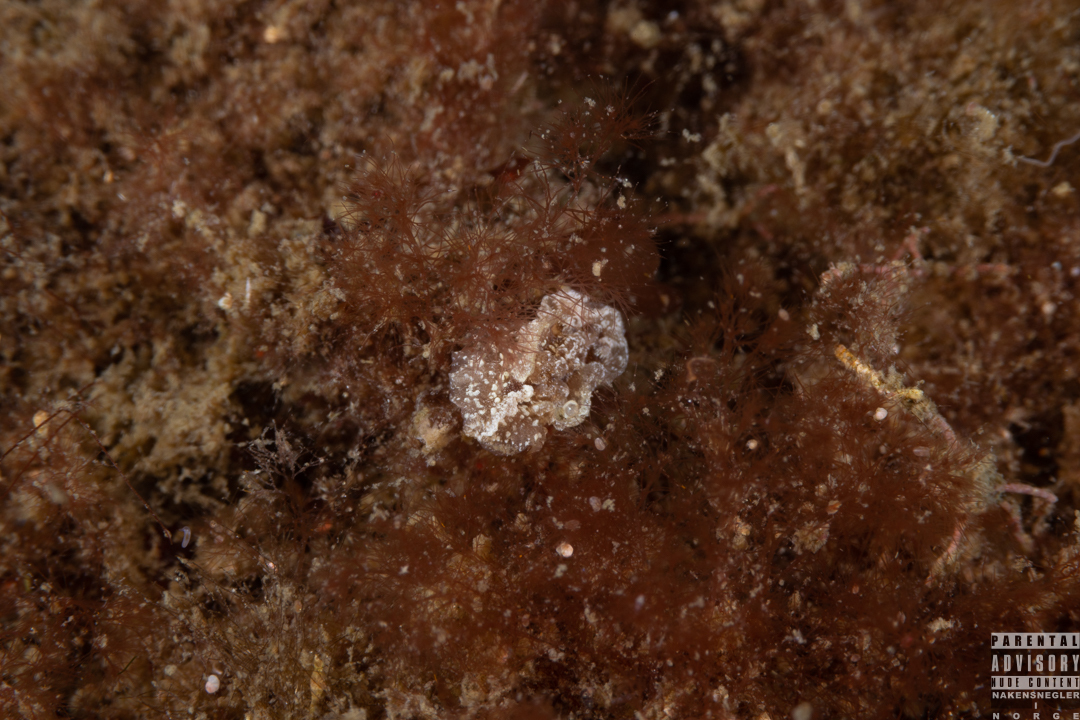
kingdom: Animalia
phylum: Mollusca
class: Gastropoda
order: Nudibranchia
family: Goniodorididae
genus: Pelagella
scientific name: Pelagella castanea
